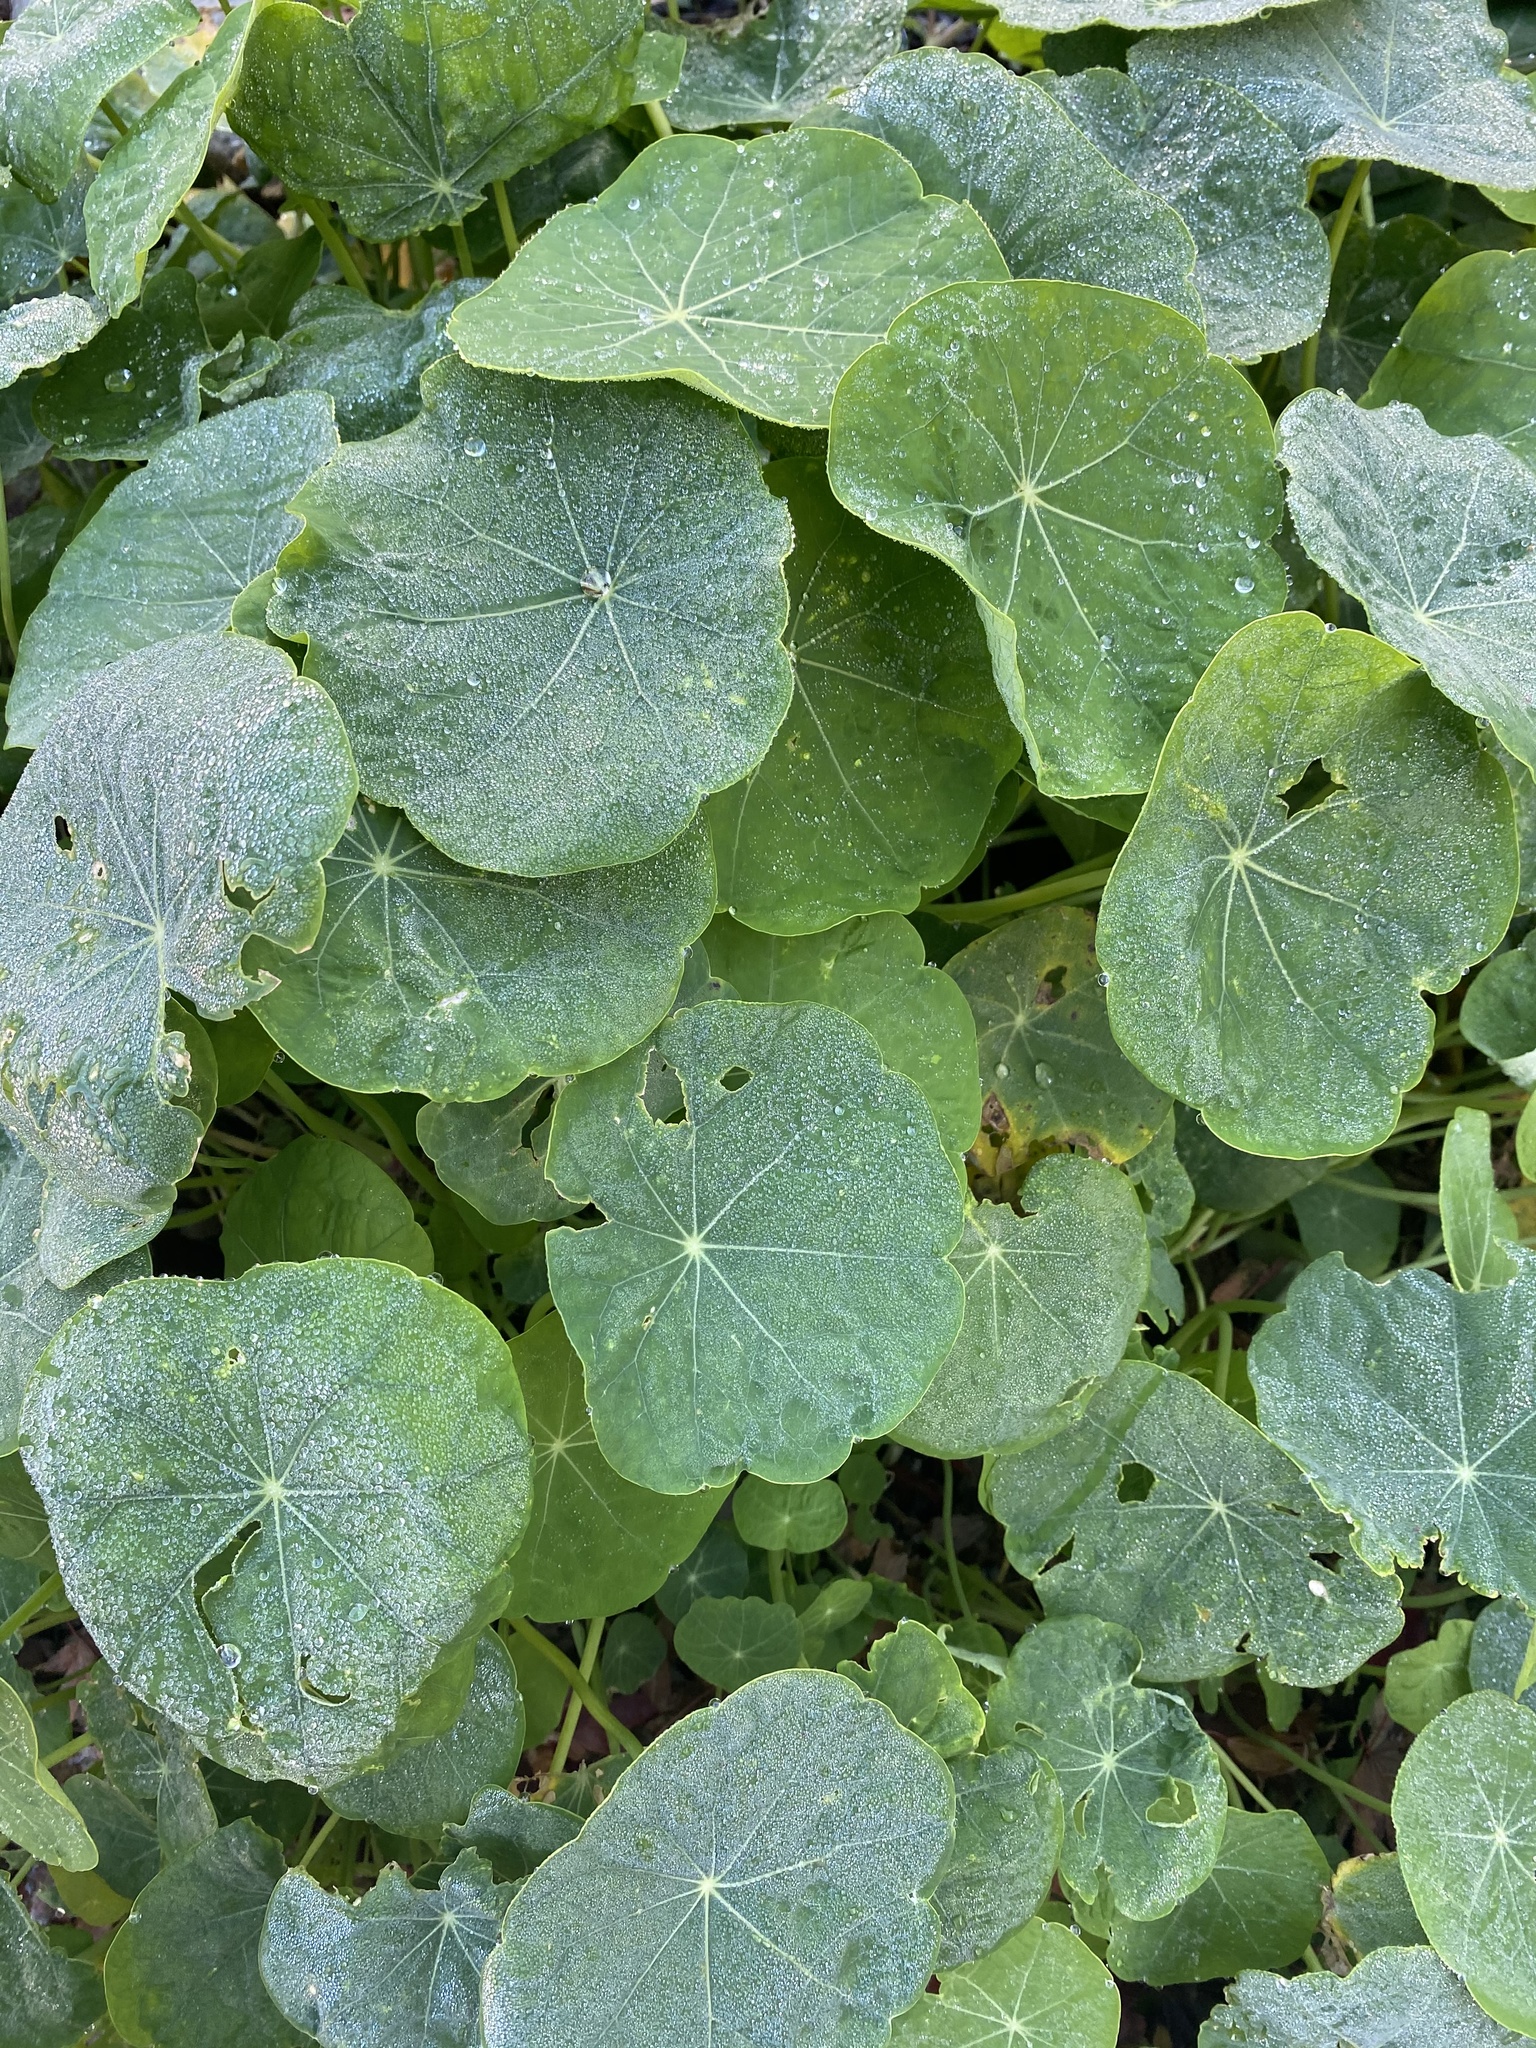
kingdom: Plantae
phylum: Tracheophyta
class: Magnoliopsida
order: Brassicales
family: Tropaeolaceae
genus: Tropaeolum
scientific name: Tropaeolum majus
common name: Nasturtium
